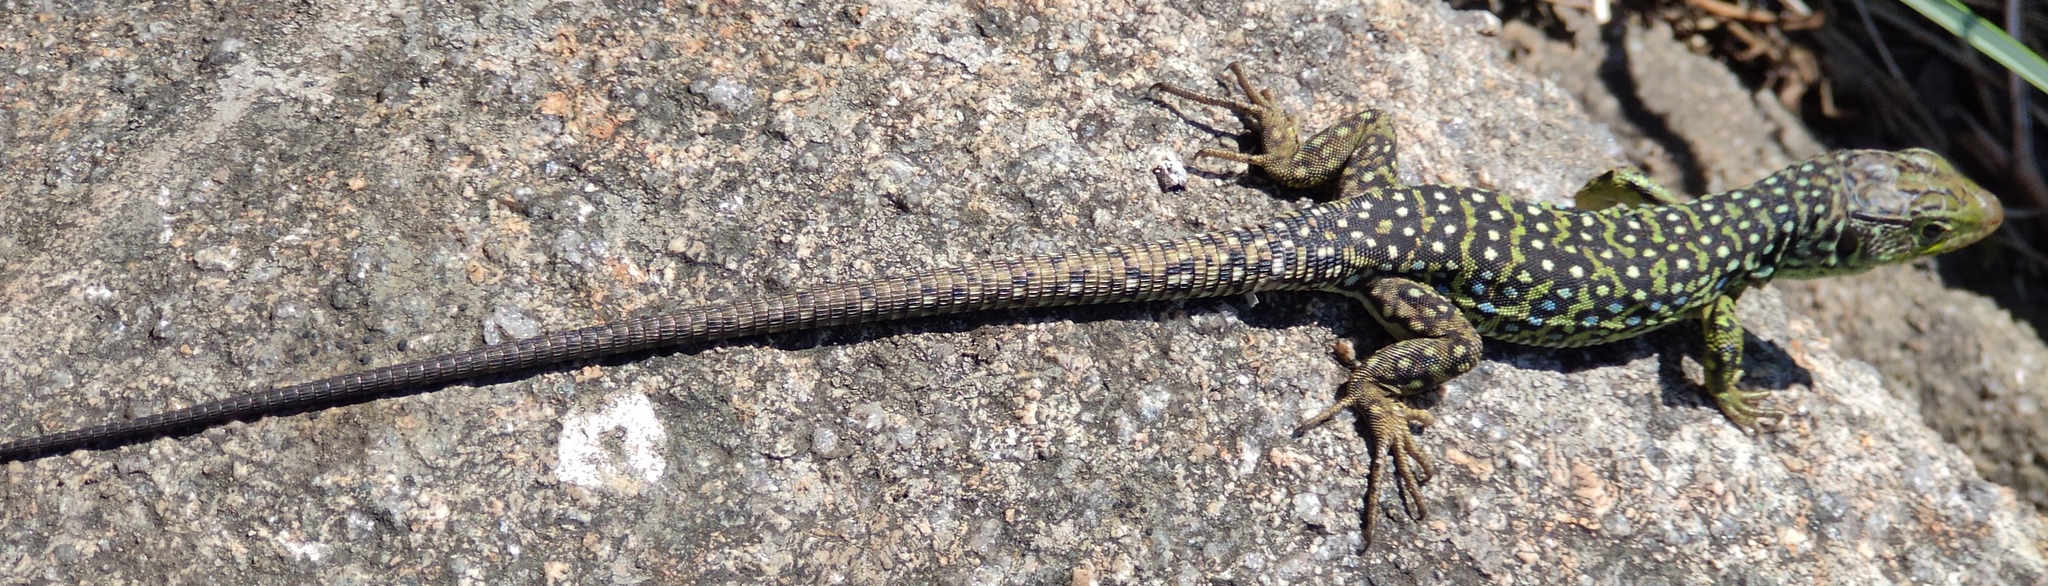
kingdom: Animalia
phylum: Chordata
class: Squamata
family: Lacertidae
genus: Timon
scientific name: Timon lepidus
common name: Ocellated lizard
